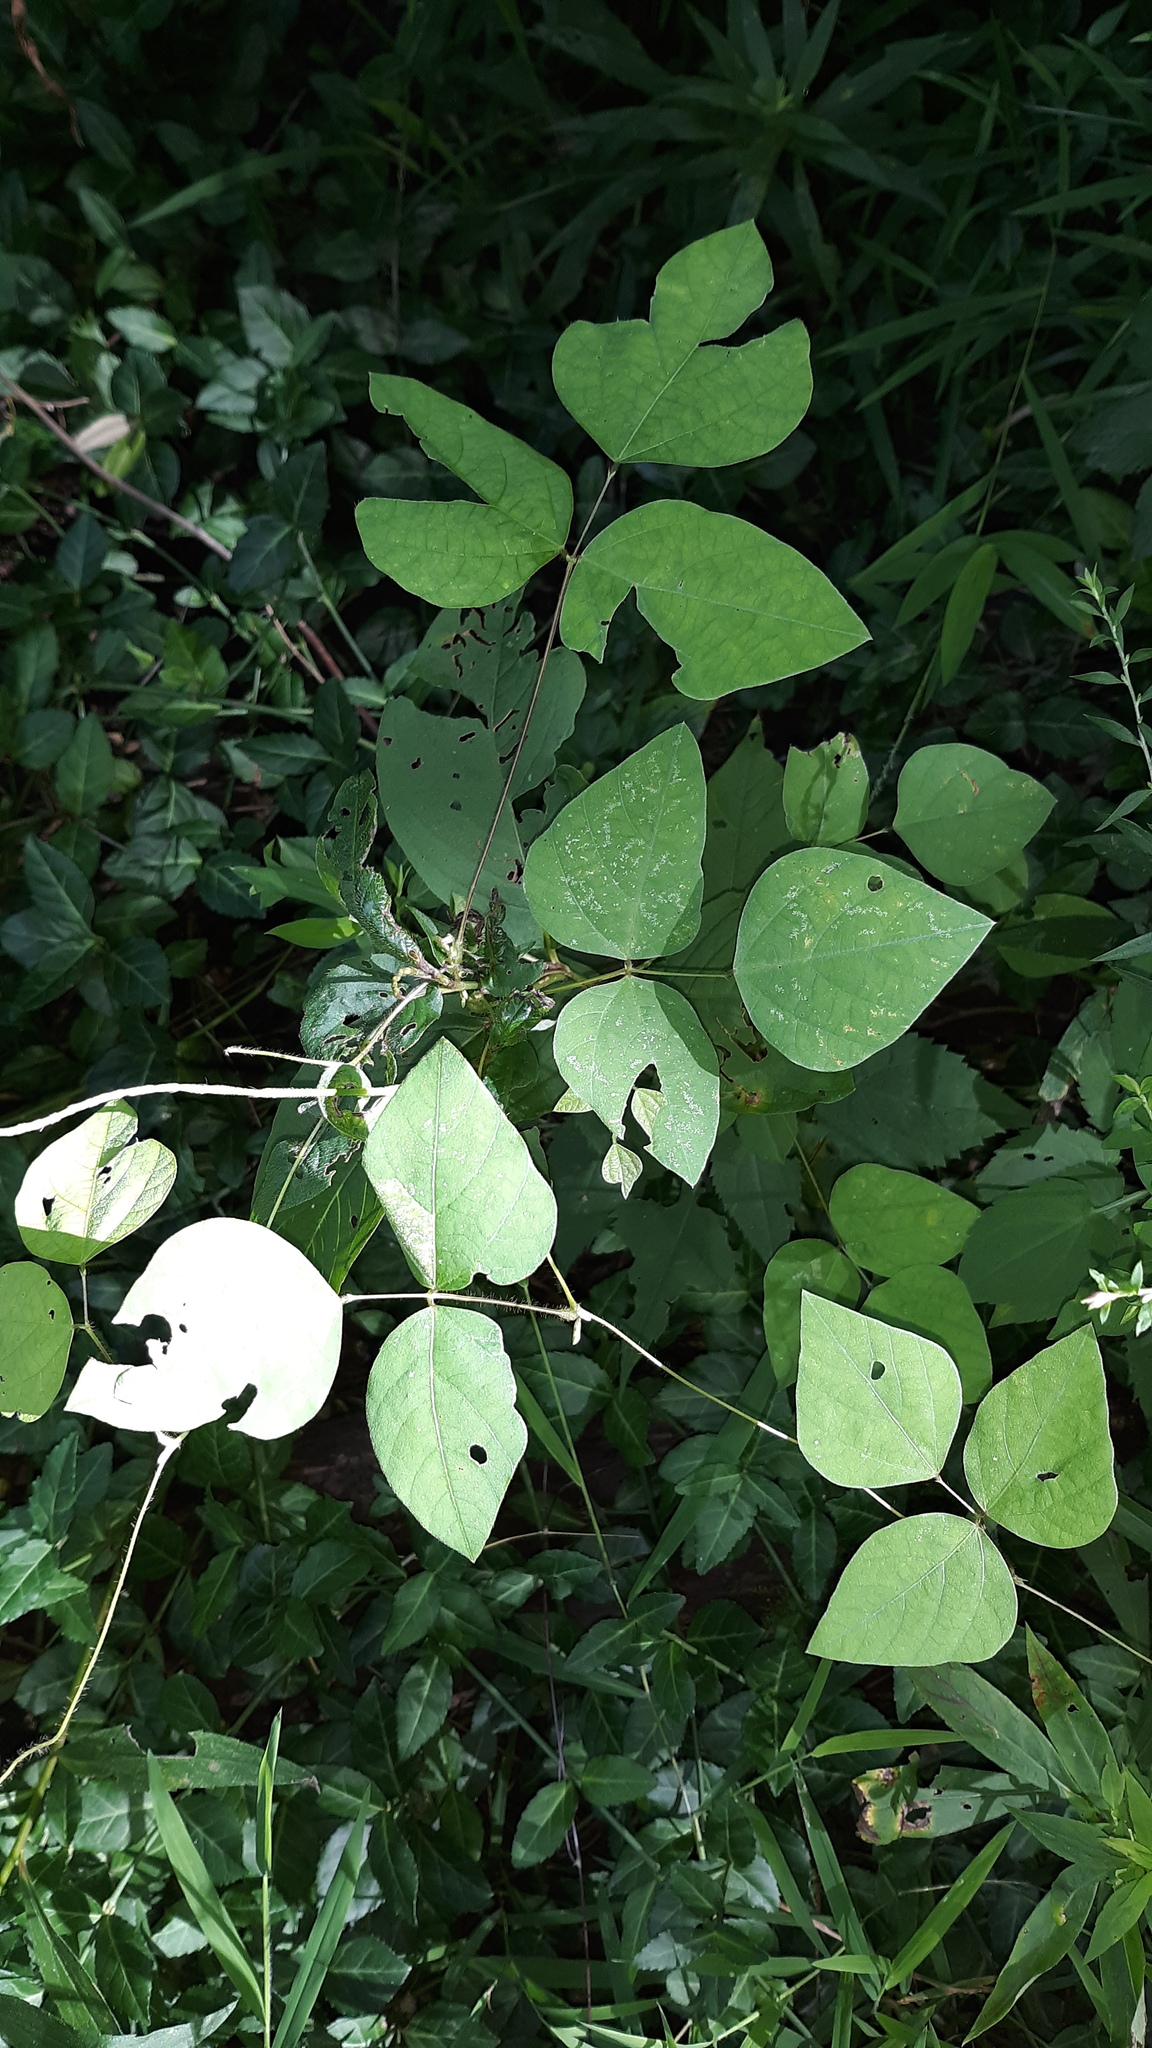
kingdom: Plantae
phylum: Tracheophyta
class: Magnoliopsida
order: Fabales
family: Fabaceae
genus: Amphicarpaea
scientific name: Amphicarpaea bracteata
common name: American hog peanut
